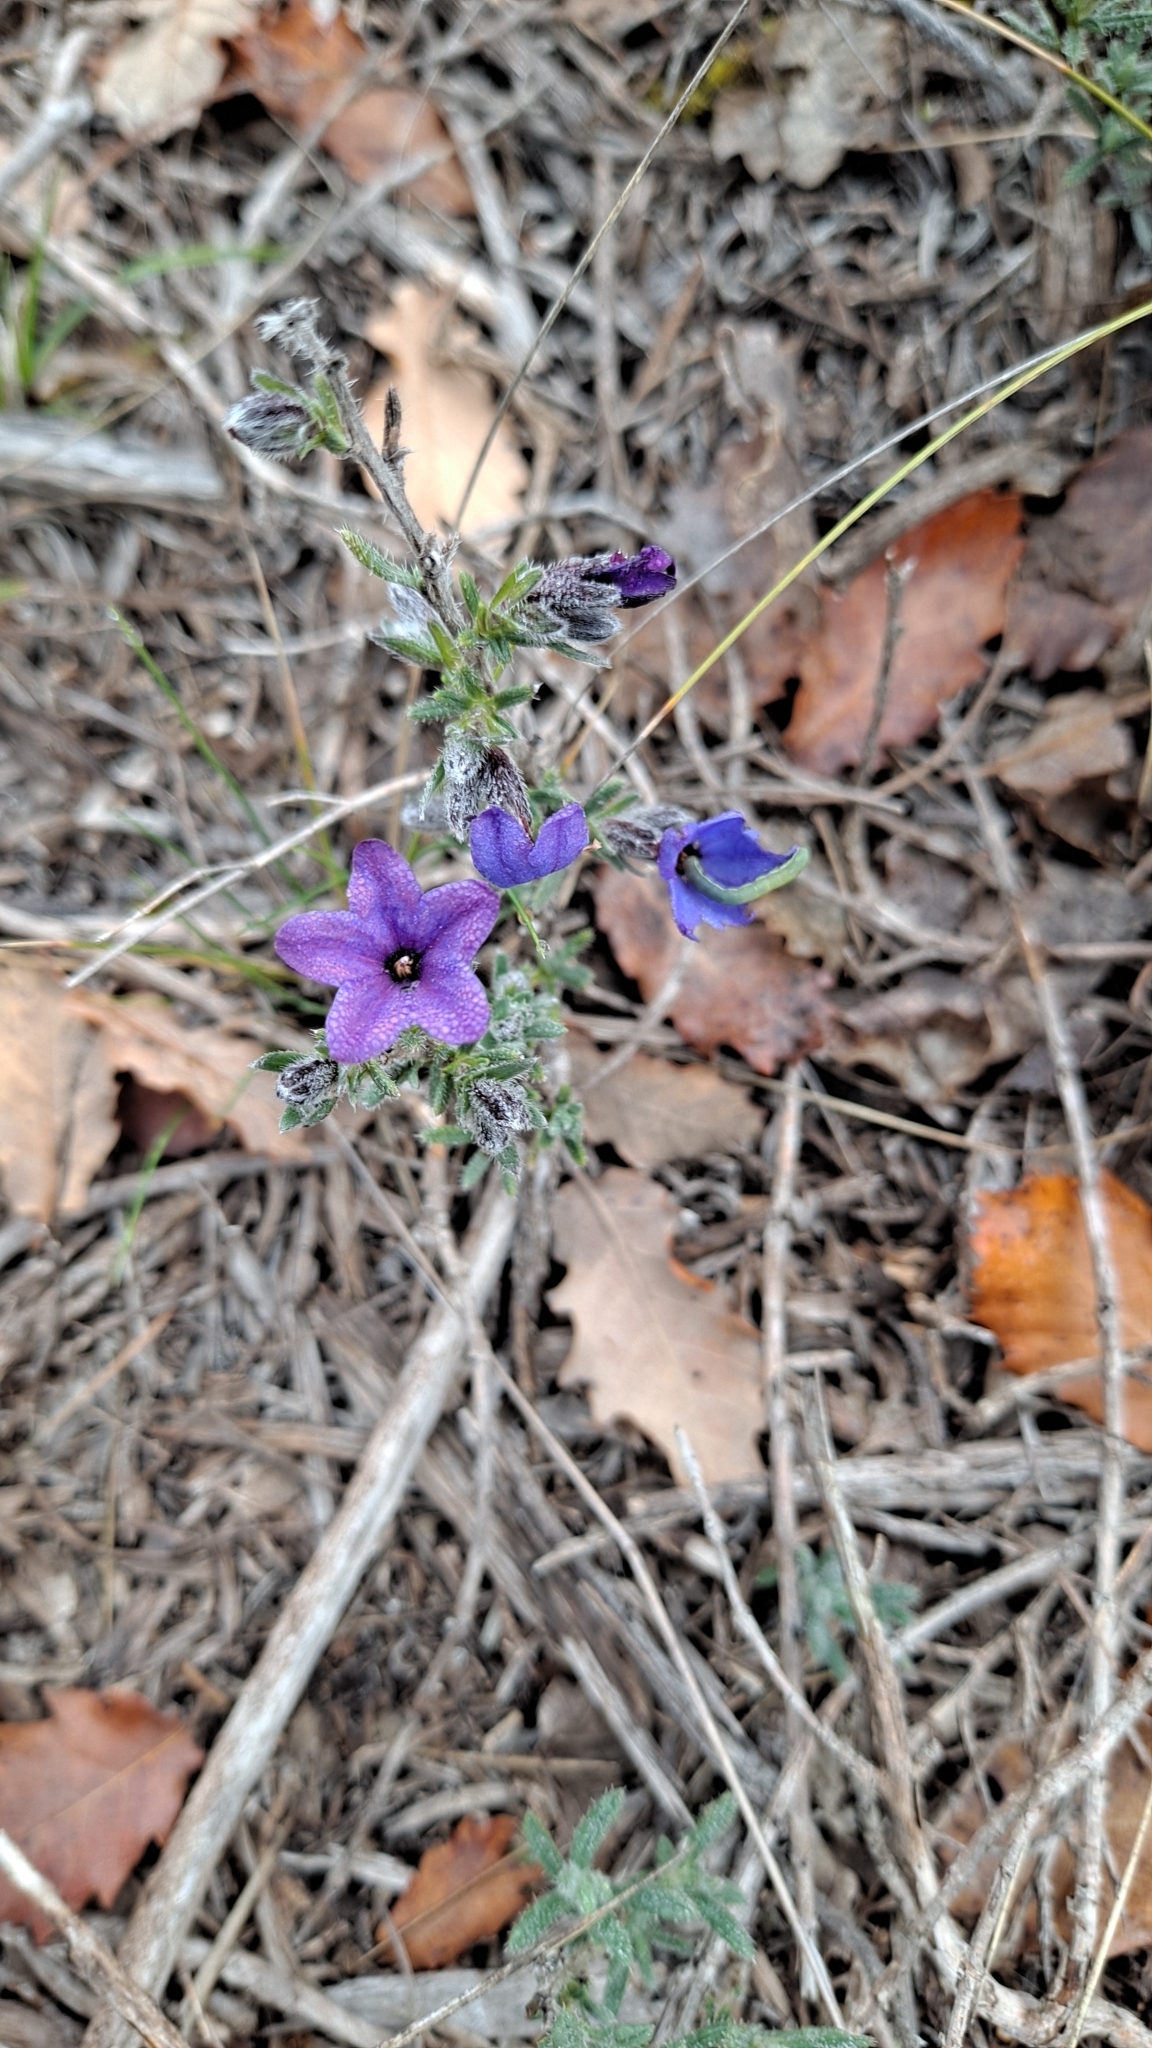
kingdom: Plantae
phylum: Tracheophyta
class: Magnoliopsida
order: Boraginales
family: Boraginaceae
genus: Lithodora
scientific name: Lithodora fruticosa
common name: Shrubby gromwell
